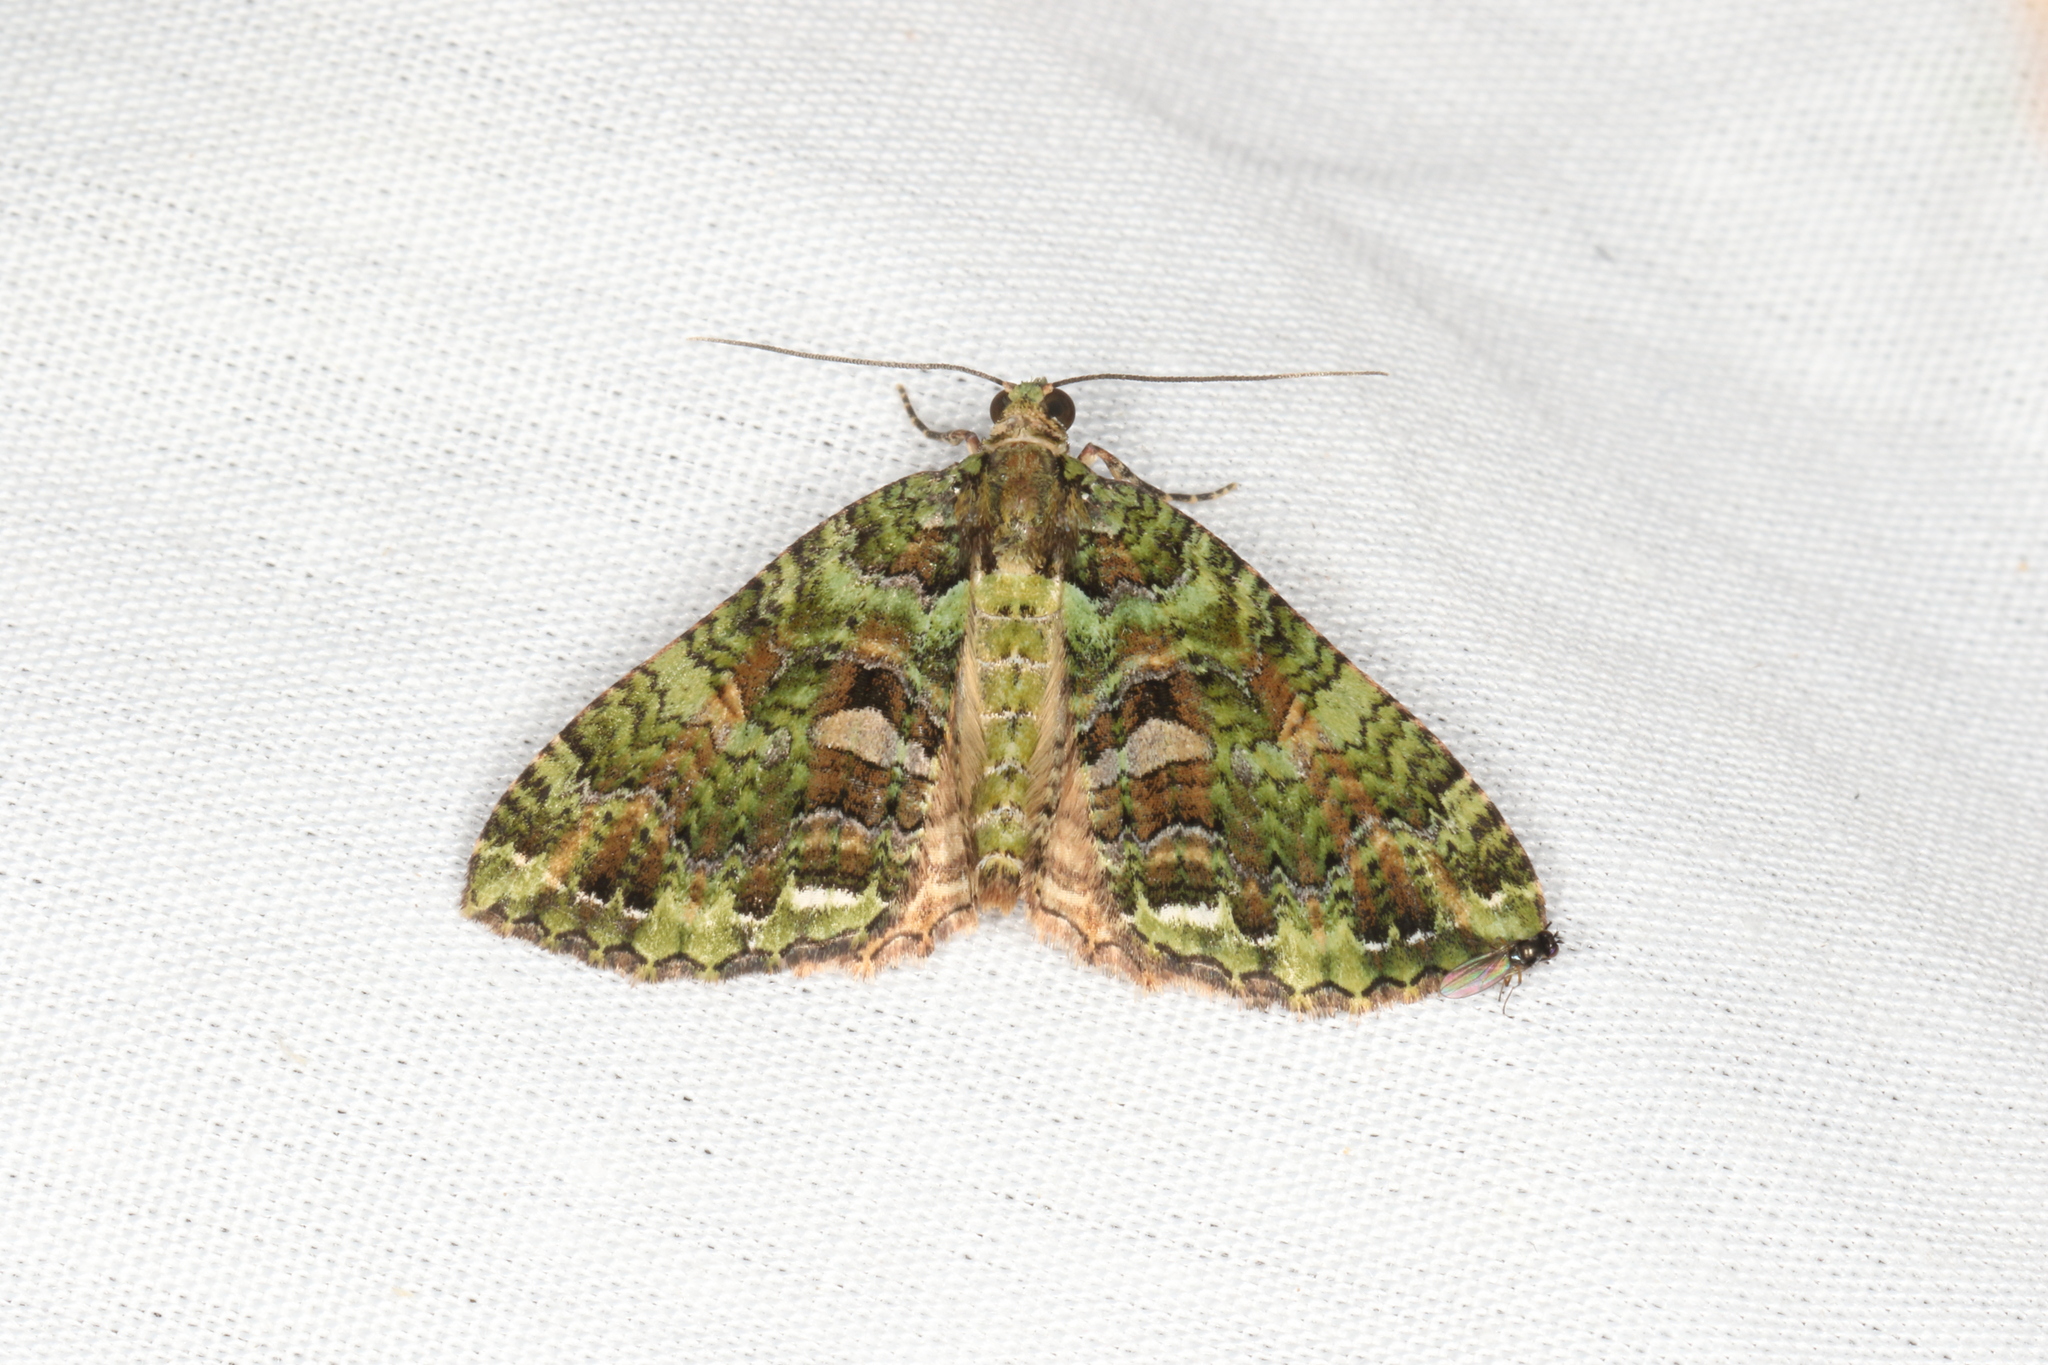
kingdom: Animalia
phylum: Arthropoda
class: Insecta
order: Lepidoptera
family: Geometridae
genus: Austrocidaria
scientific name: Austrocidaria similata
